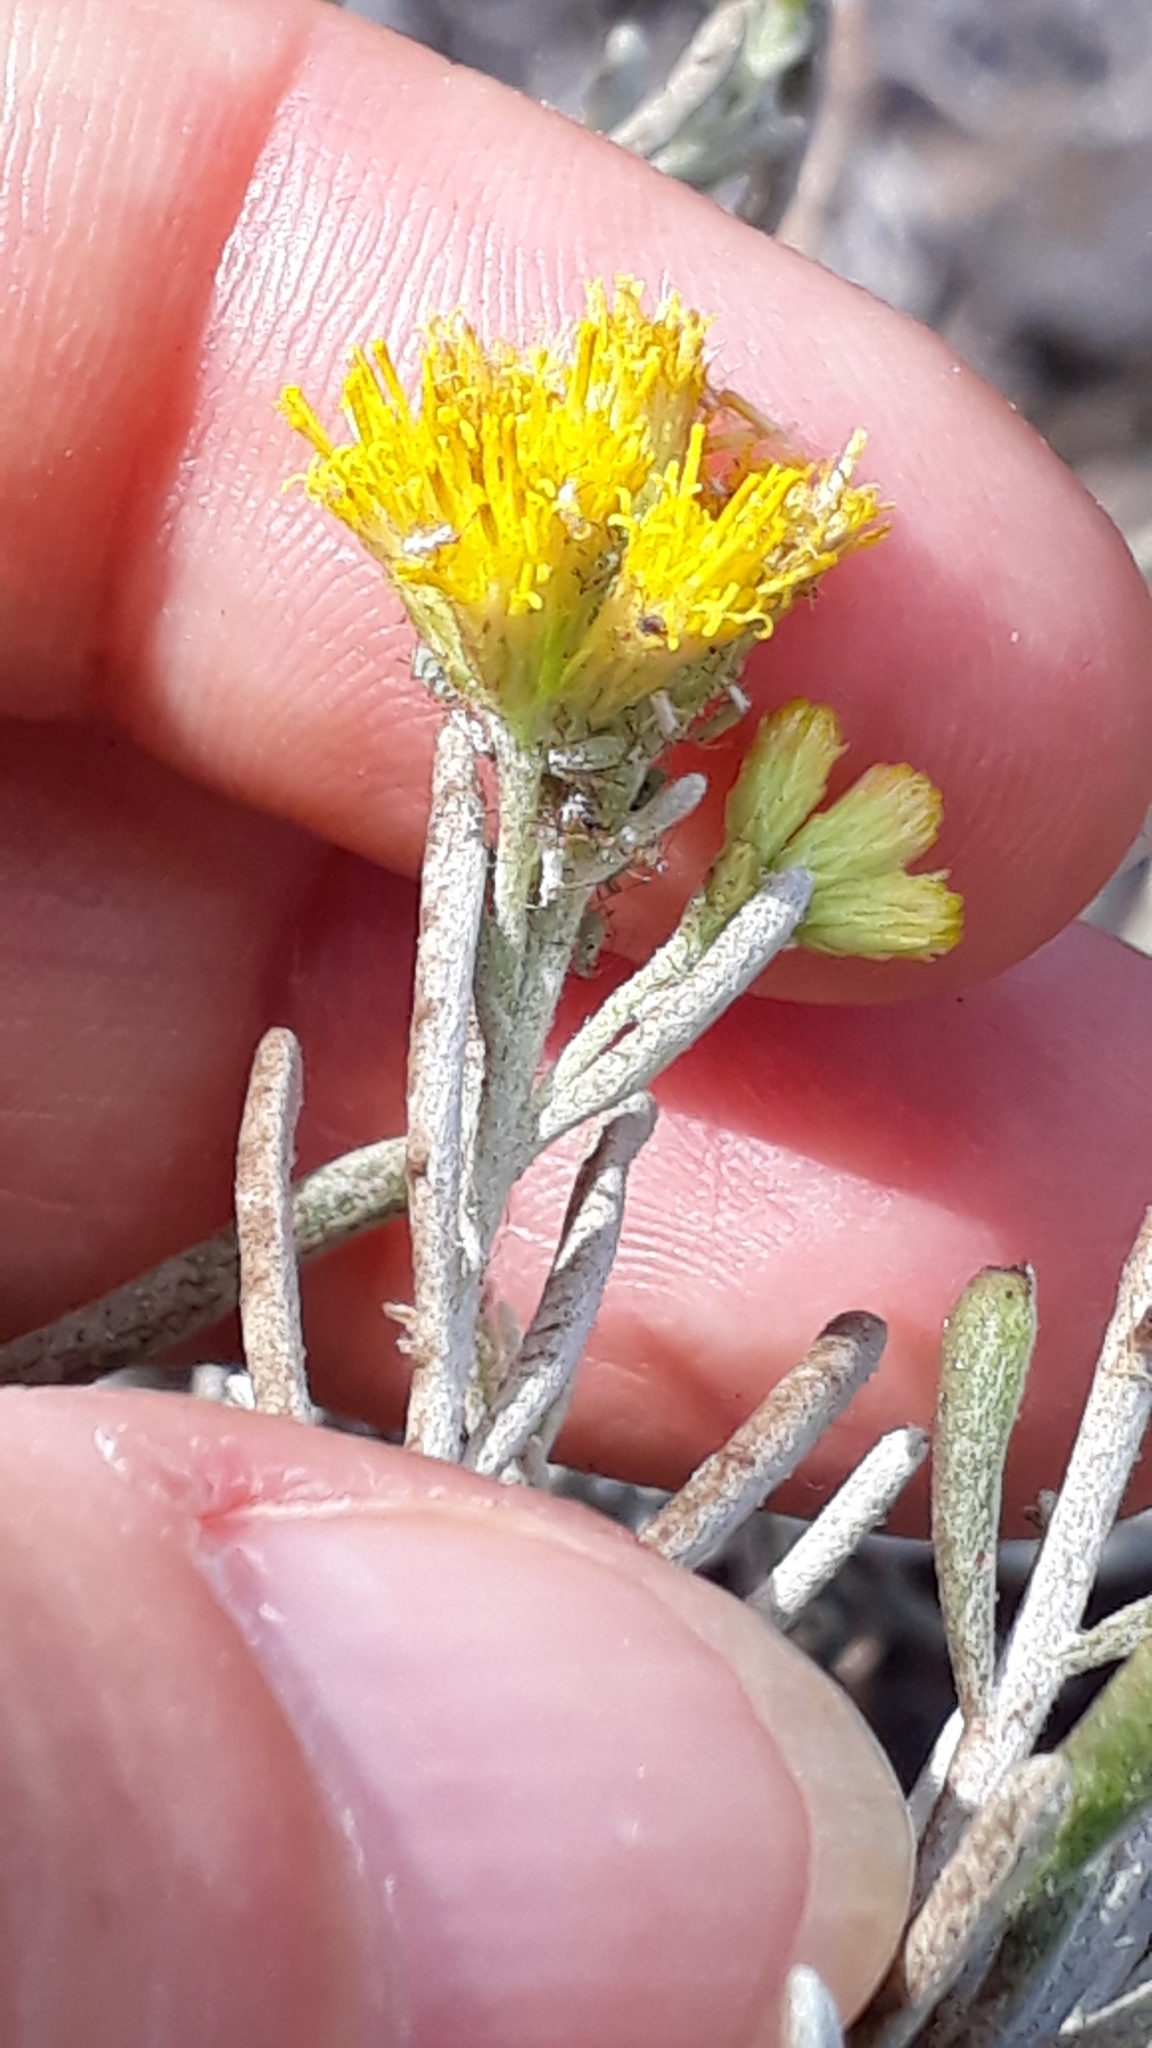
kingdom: Plantae
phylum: Tracheophyta
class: Magnoliopsida
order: Asterales
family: Asteraceae
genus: Schizogyne
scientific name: Schizogyne sericea
